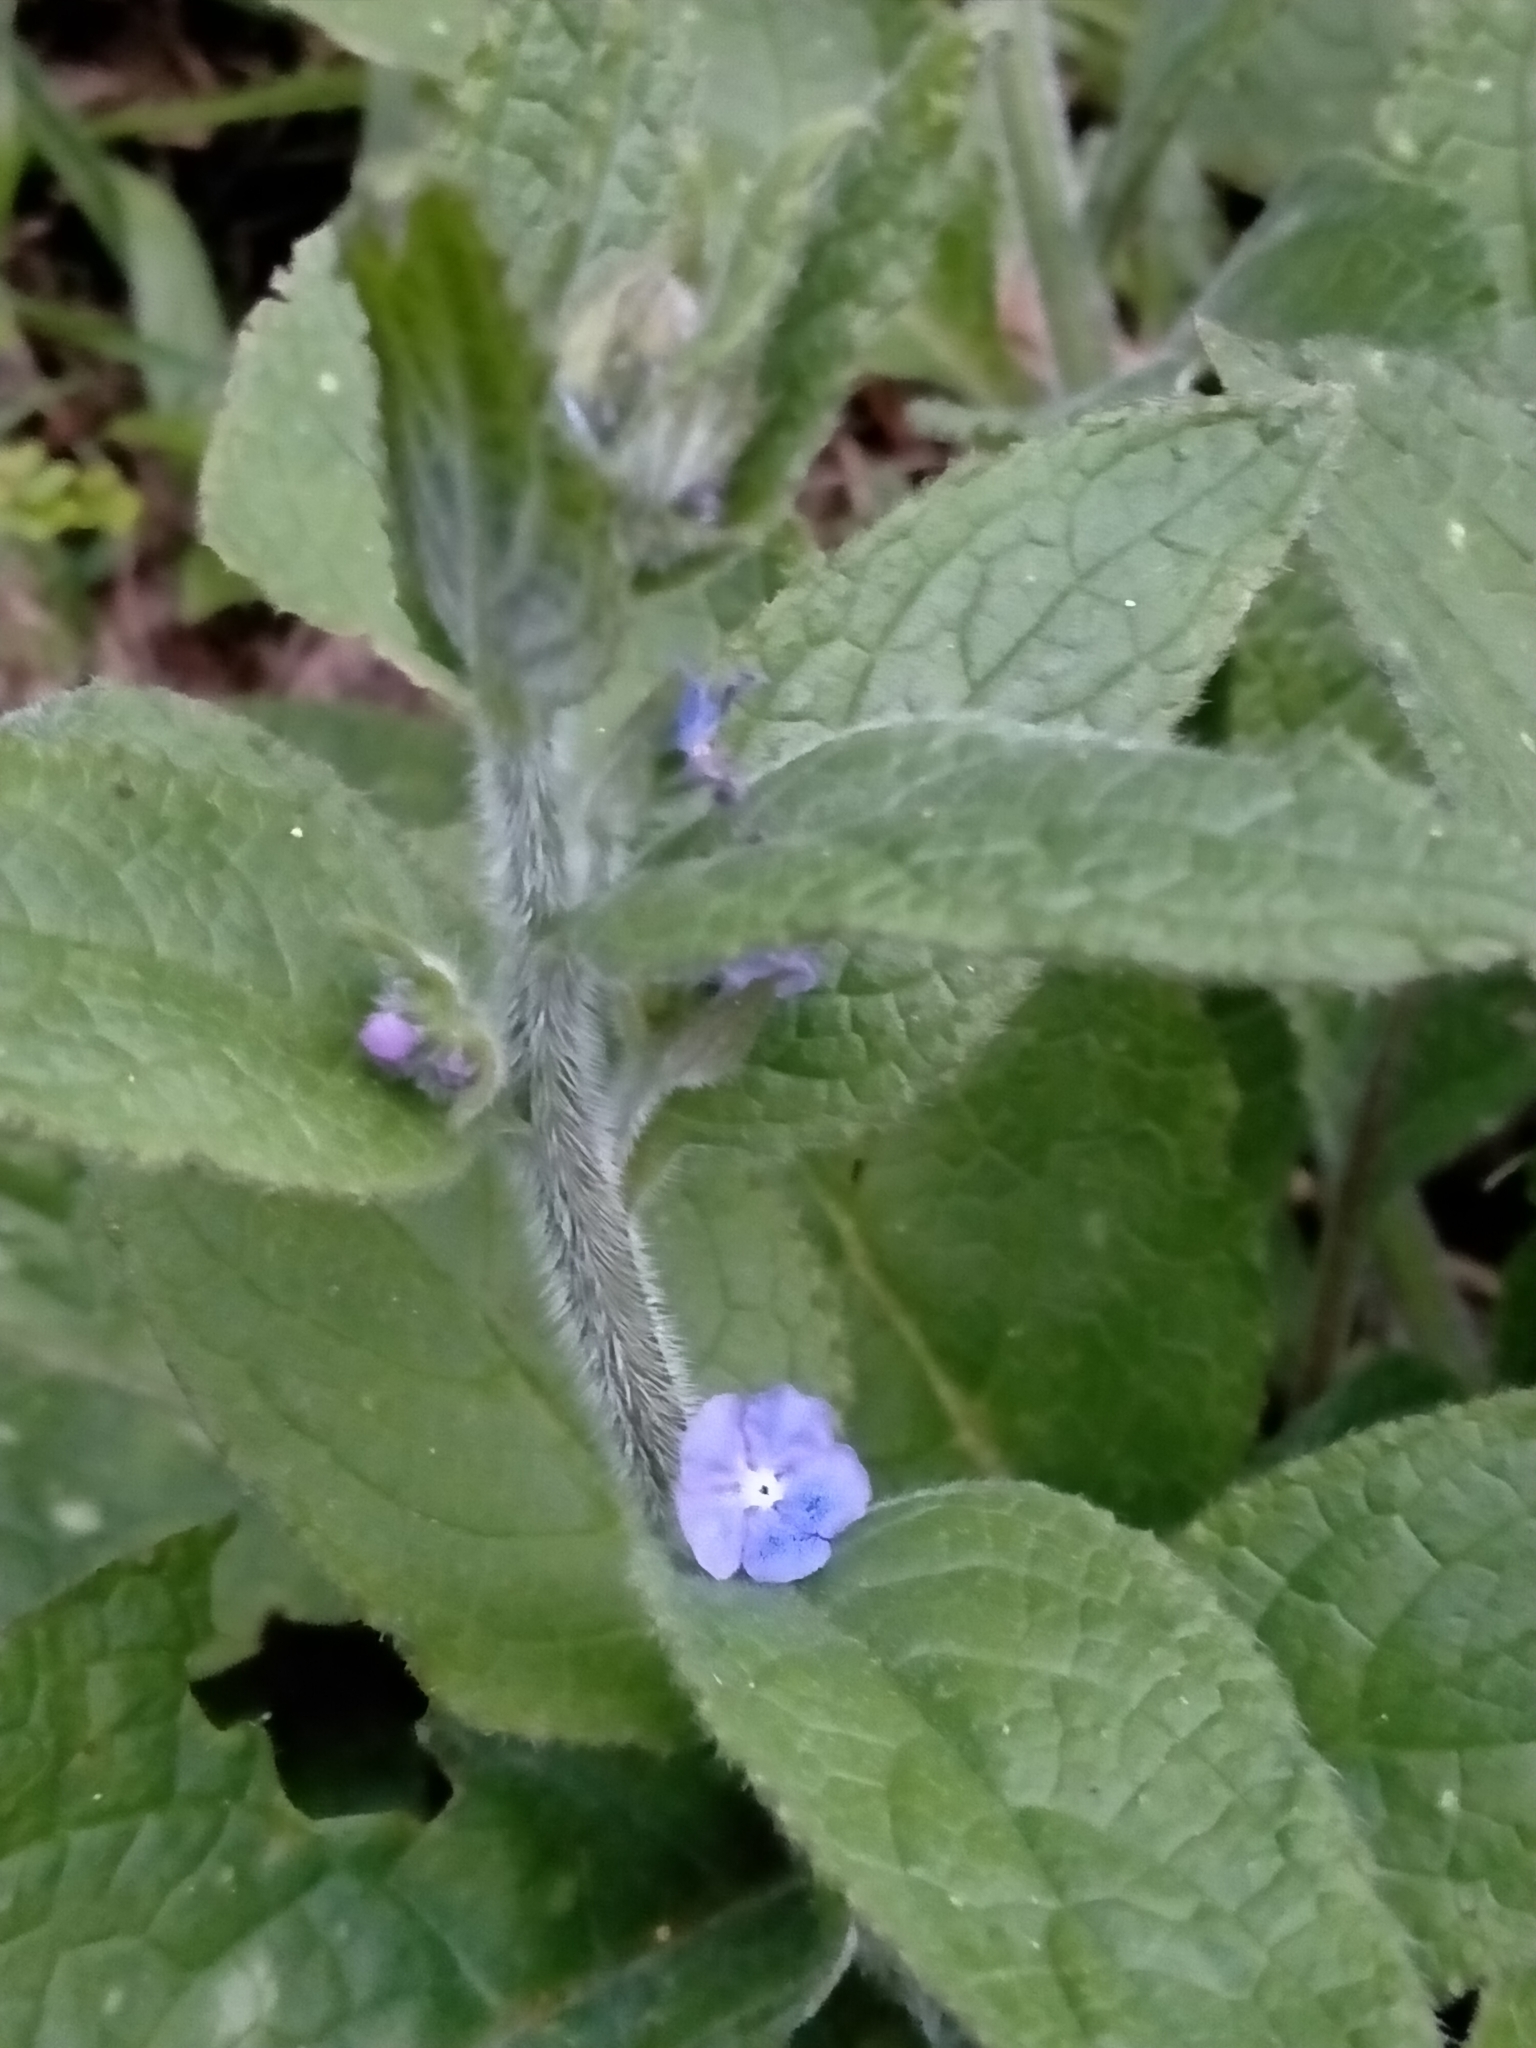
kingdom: Plantae
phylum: Tracheophyta
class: Magnoliopsida
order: Boraginales
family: Boraginaceae
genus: Pentaglottis
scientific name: Pentaglottis sempervirens
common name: Green alkanet
